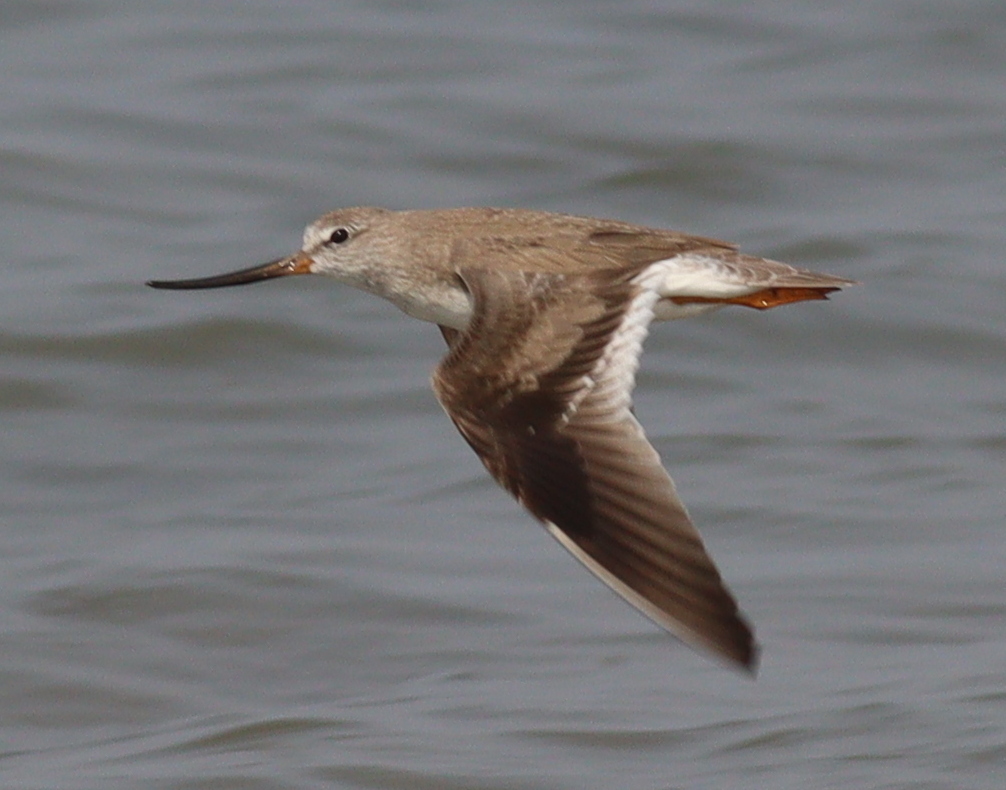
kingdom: Animalia
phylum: Chordata
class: Aves
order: Charadriiformes
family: Scolopacidae
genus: Xenus
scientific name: Xenus cinereus
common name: Terek sandpiper
